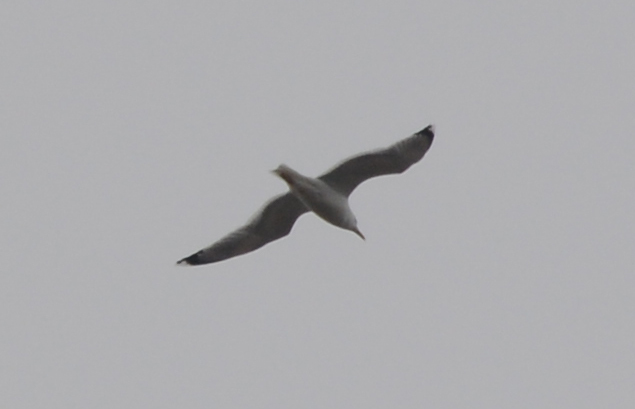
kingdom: Animalia
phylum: Chordata
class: Aves
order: Charadriiformes
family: Laridae
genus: Larus
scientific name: Larus canus
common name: Mew gull
